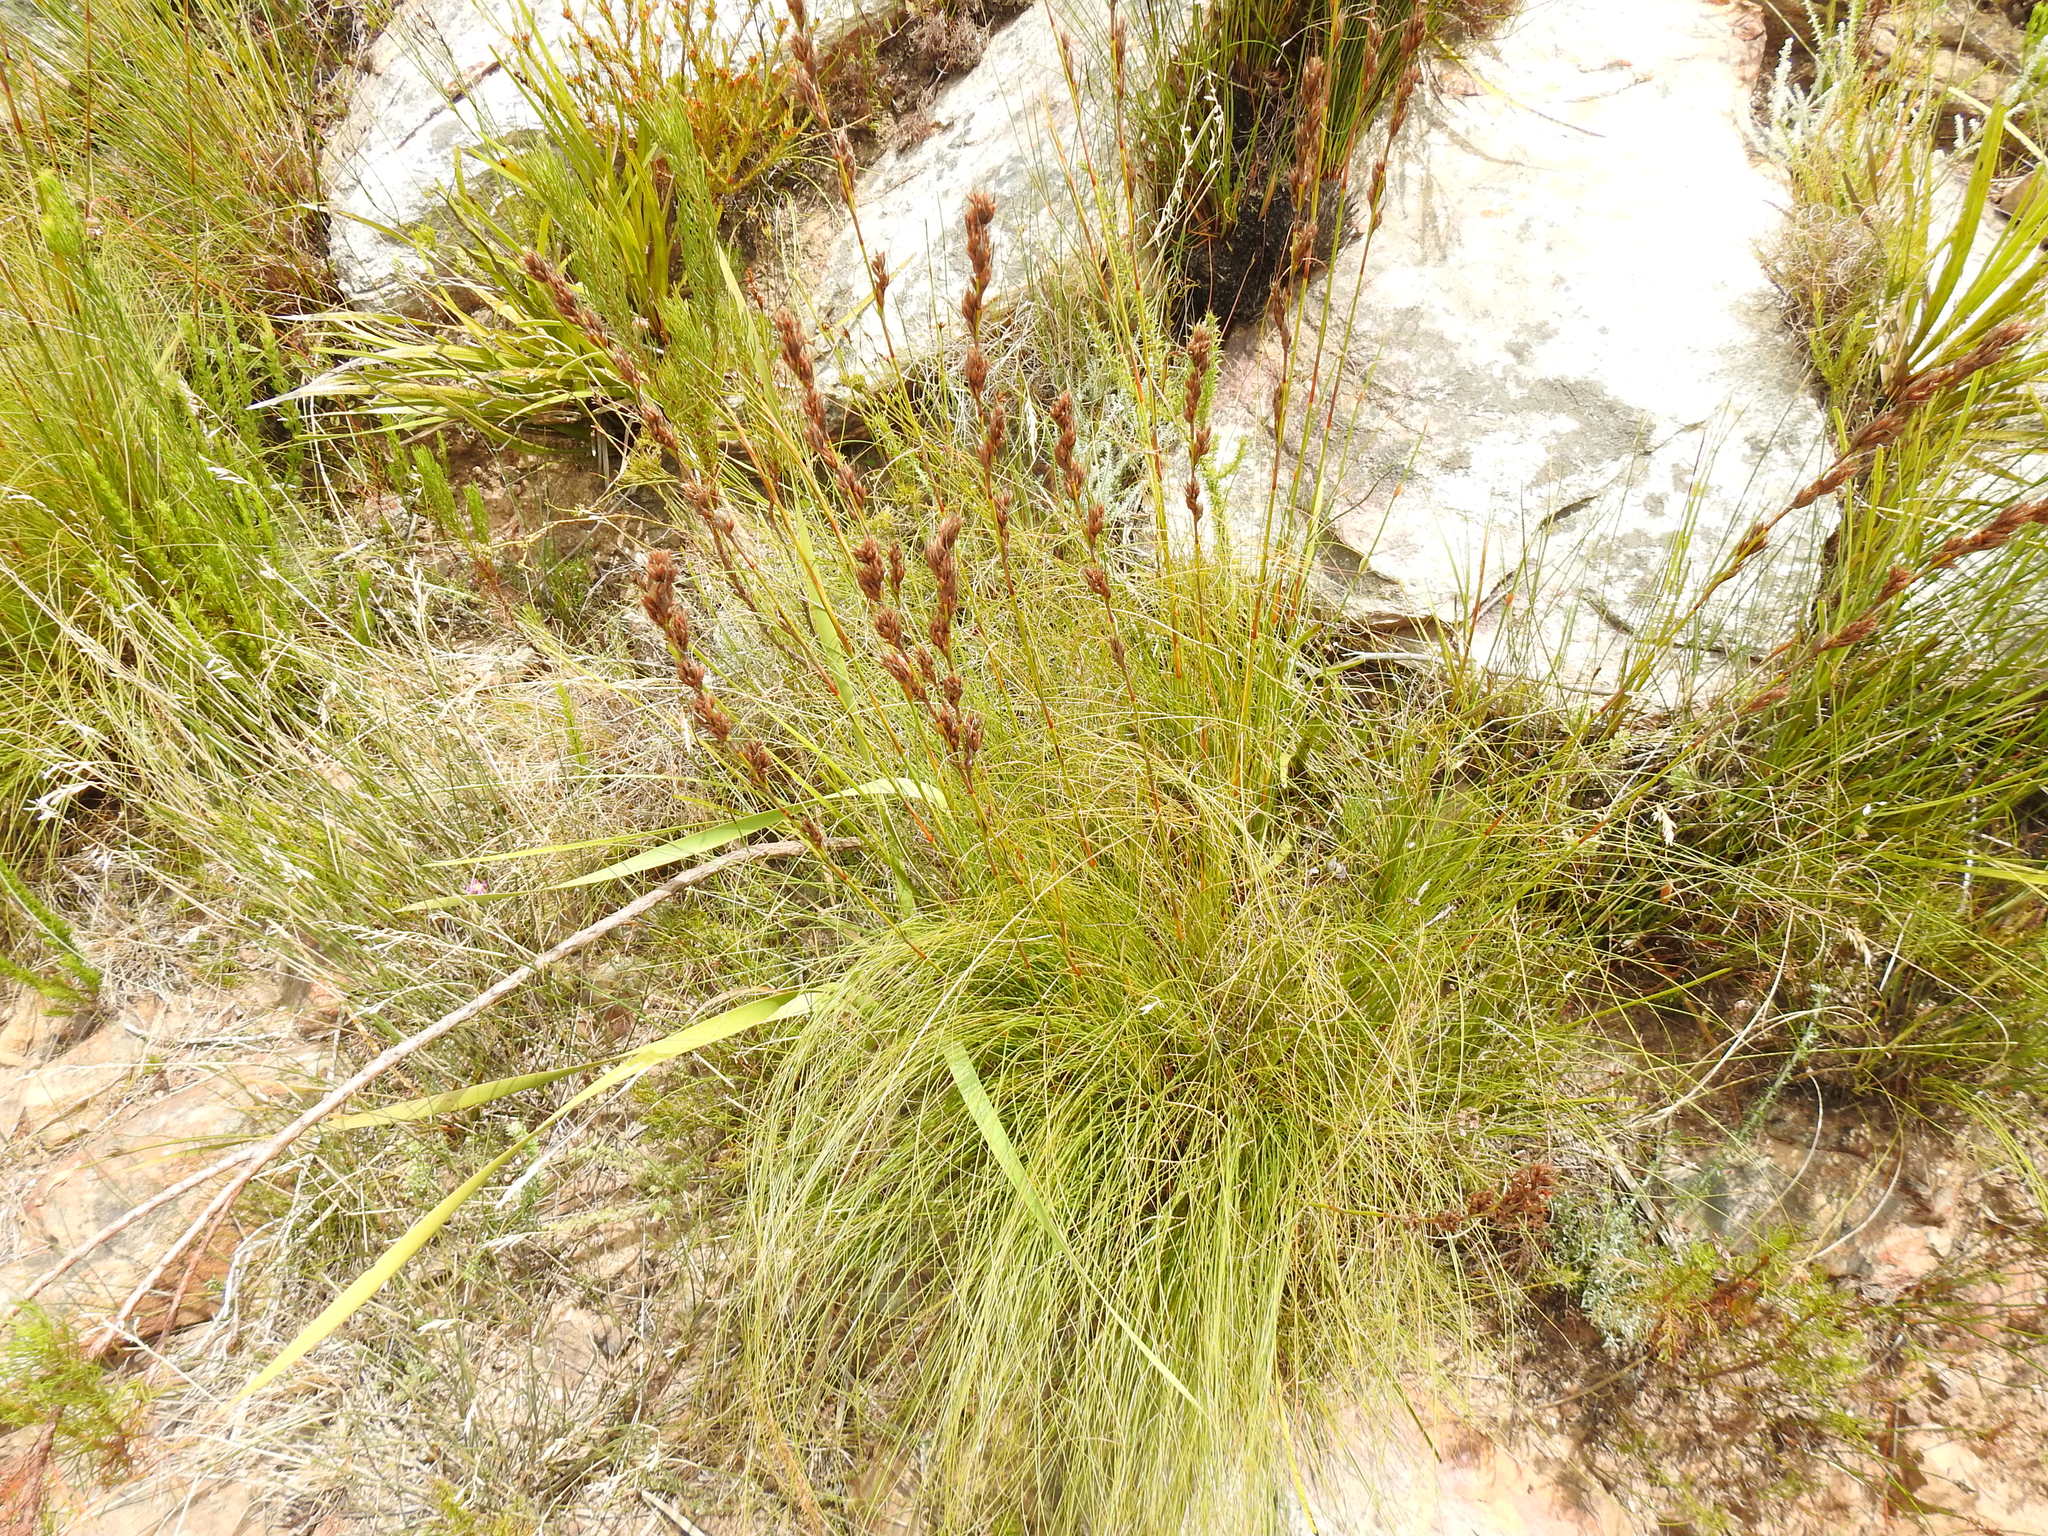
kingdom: Plantae
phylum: Tracheophyta
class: Liliopsida
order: Poales
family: Cyperaceae
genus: Tetraria
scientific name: Tetraria ustulata
